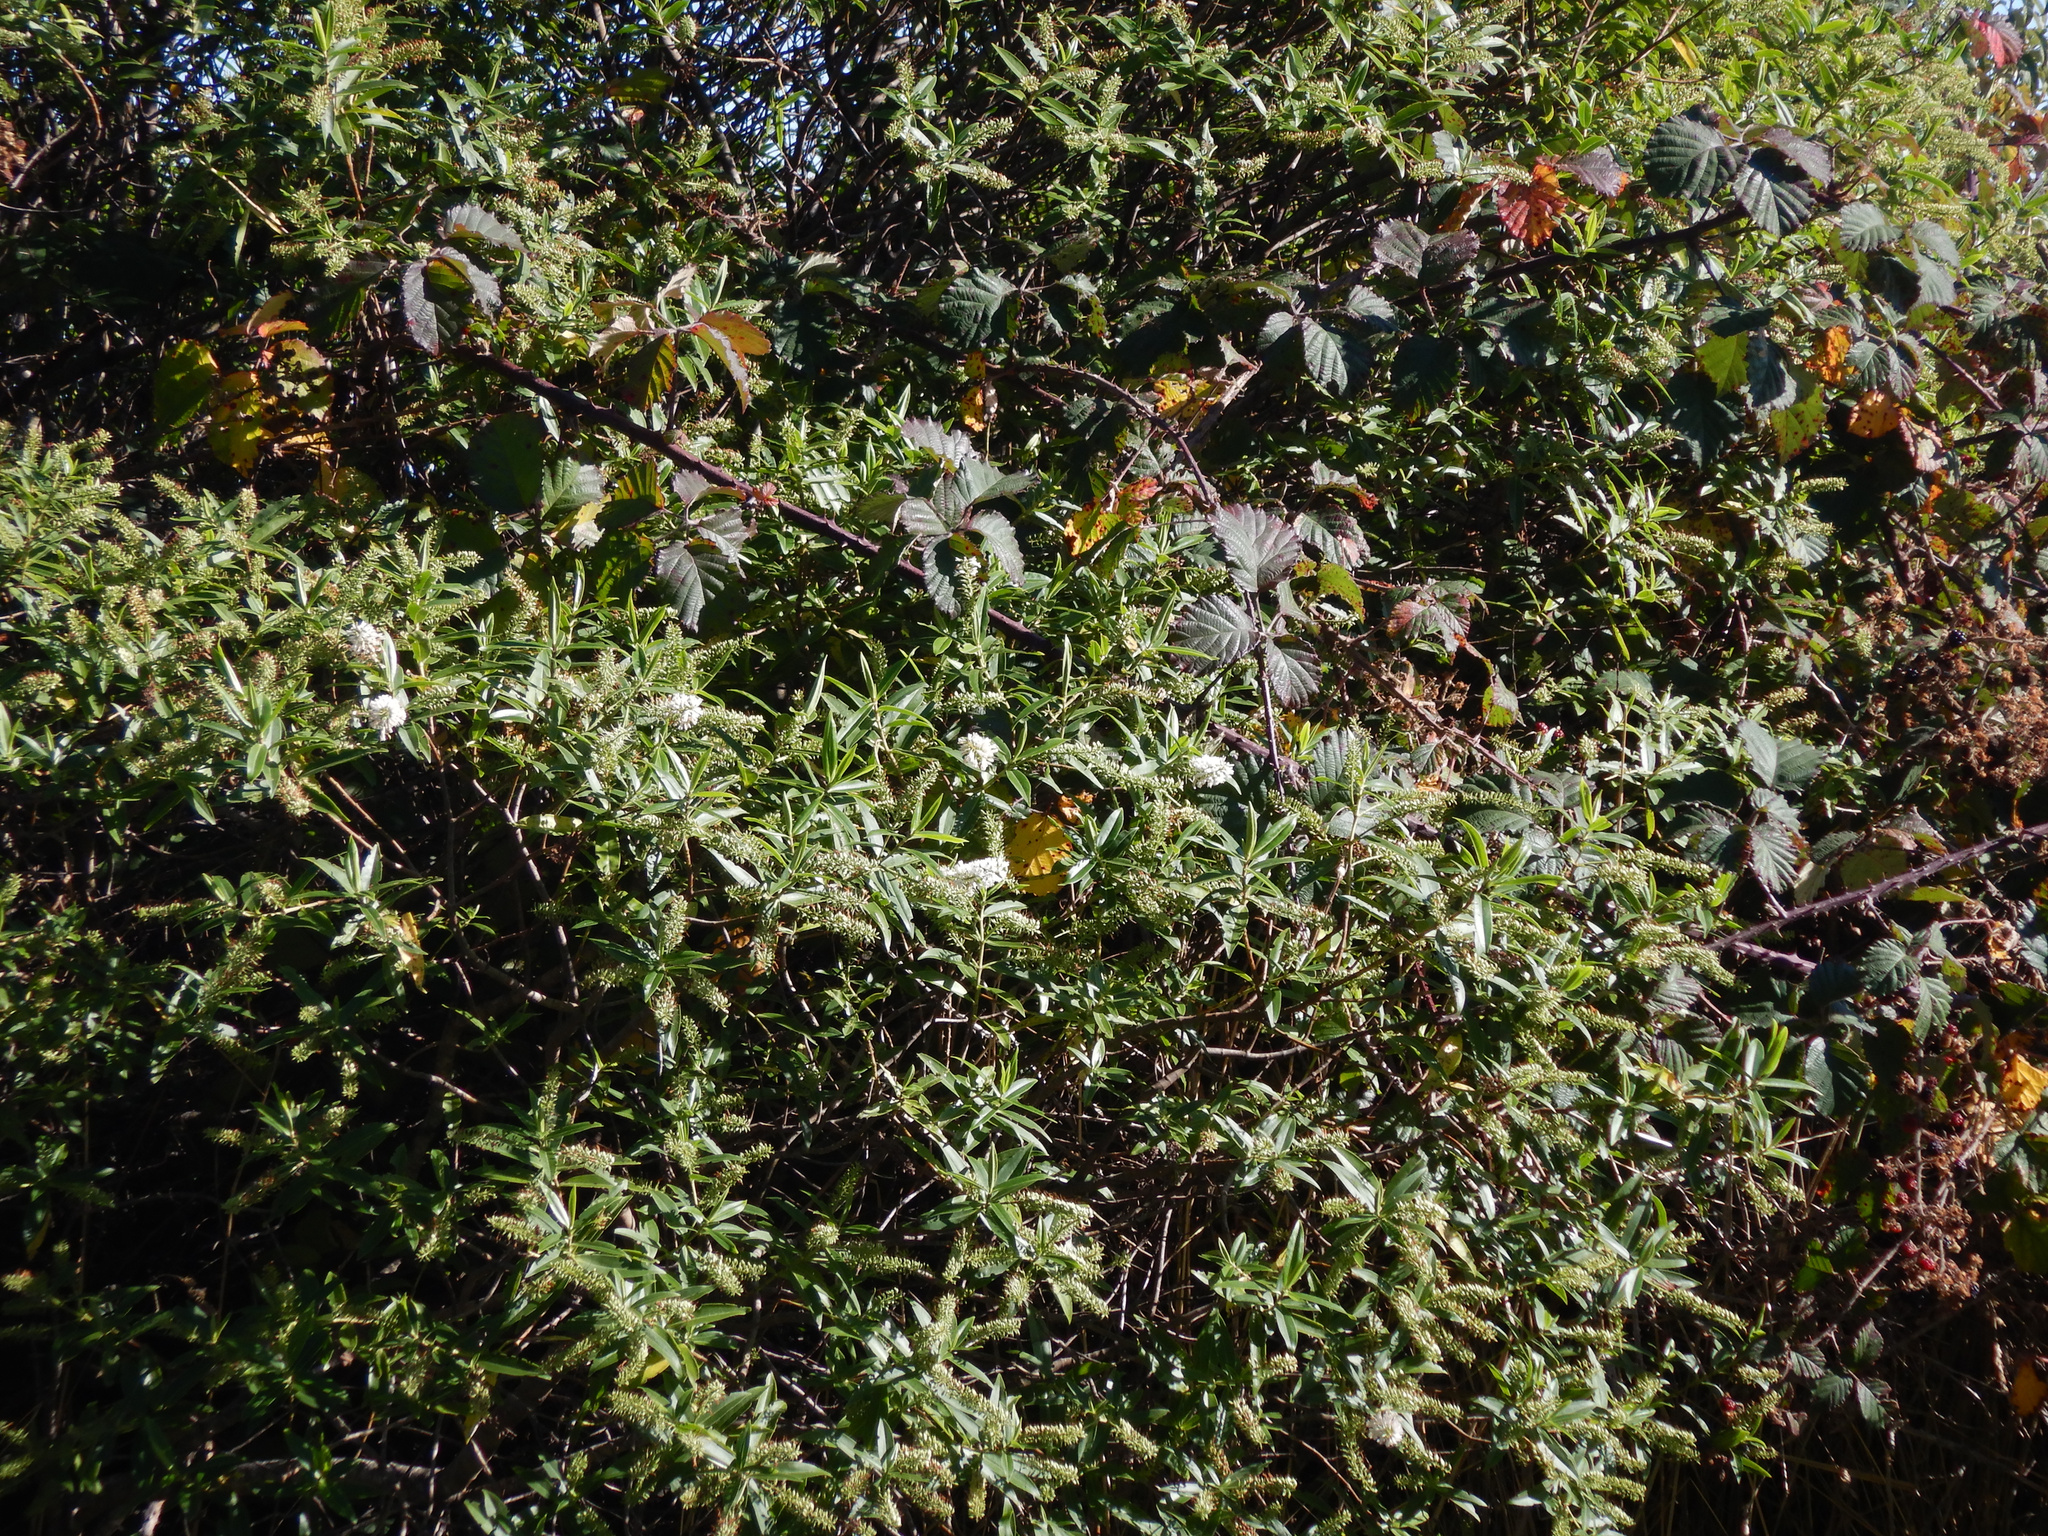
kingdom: Plantae
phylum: Tracheophyta
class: Magnoliopsida
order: Rosales
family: Rosaceae
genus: Rubus
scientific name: Rubus fruticosus
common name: Blackberry, bramble
